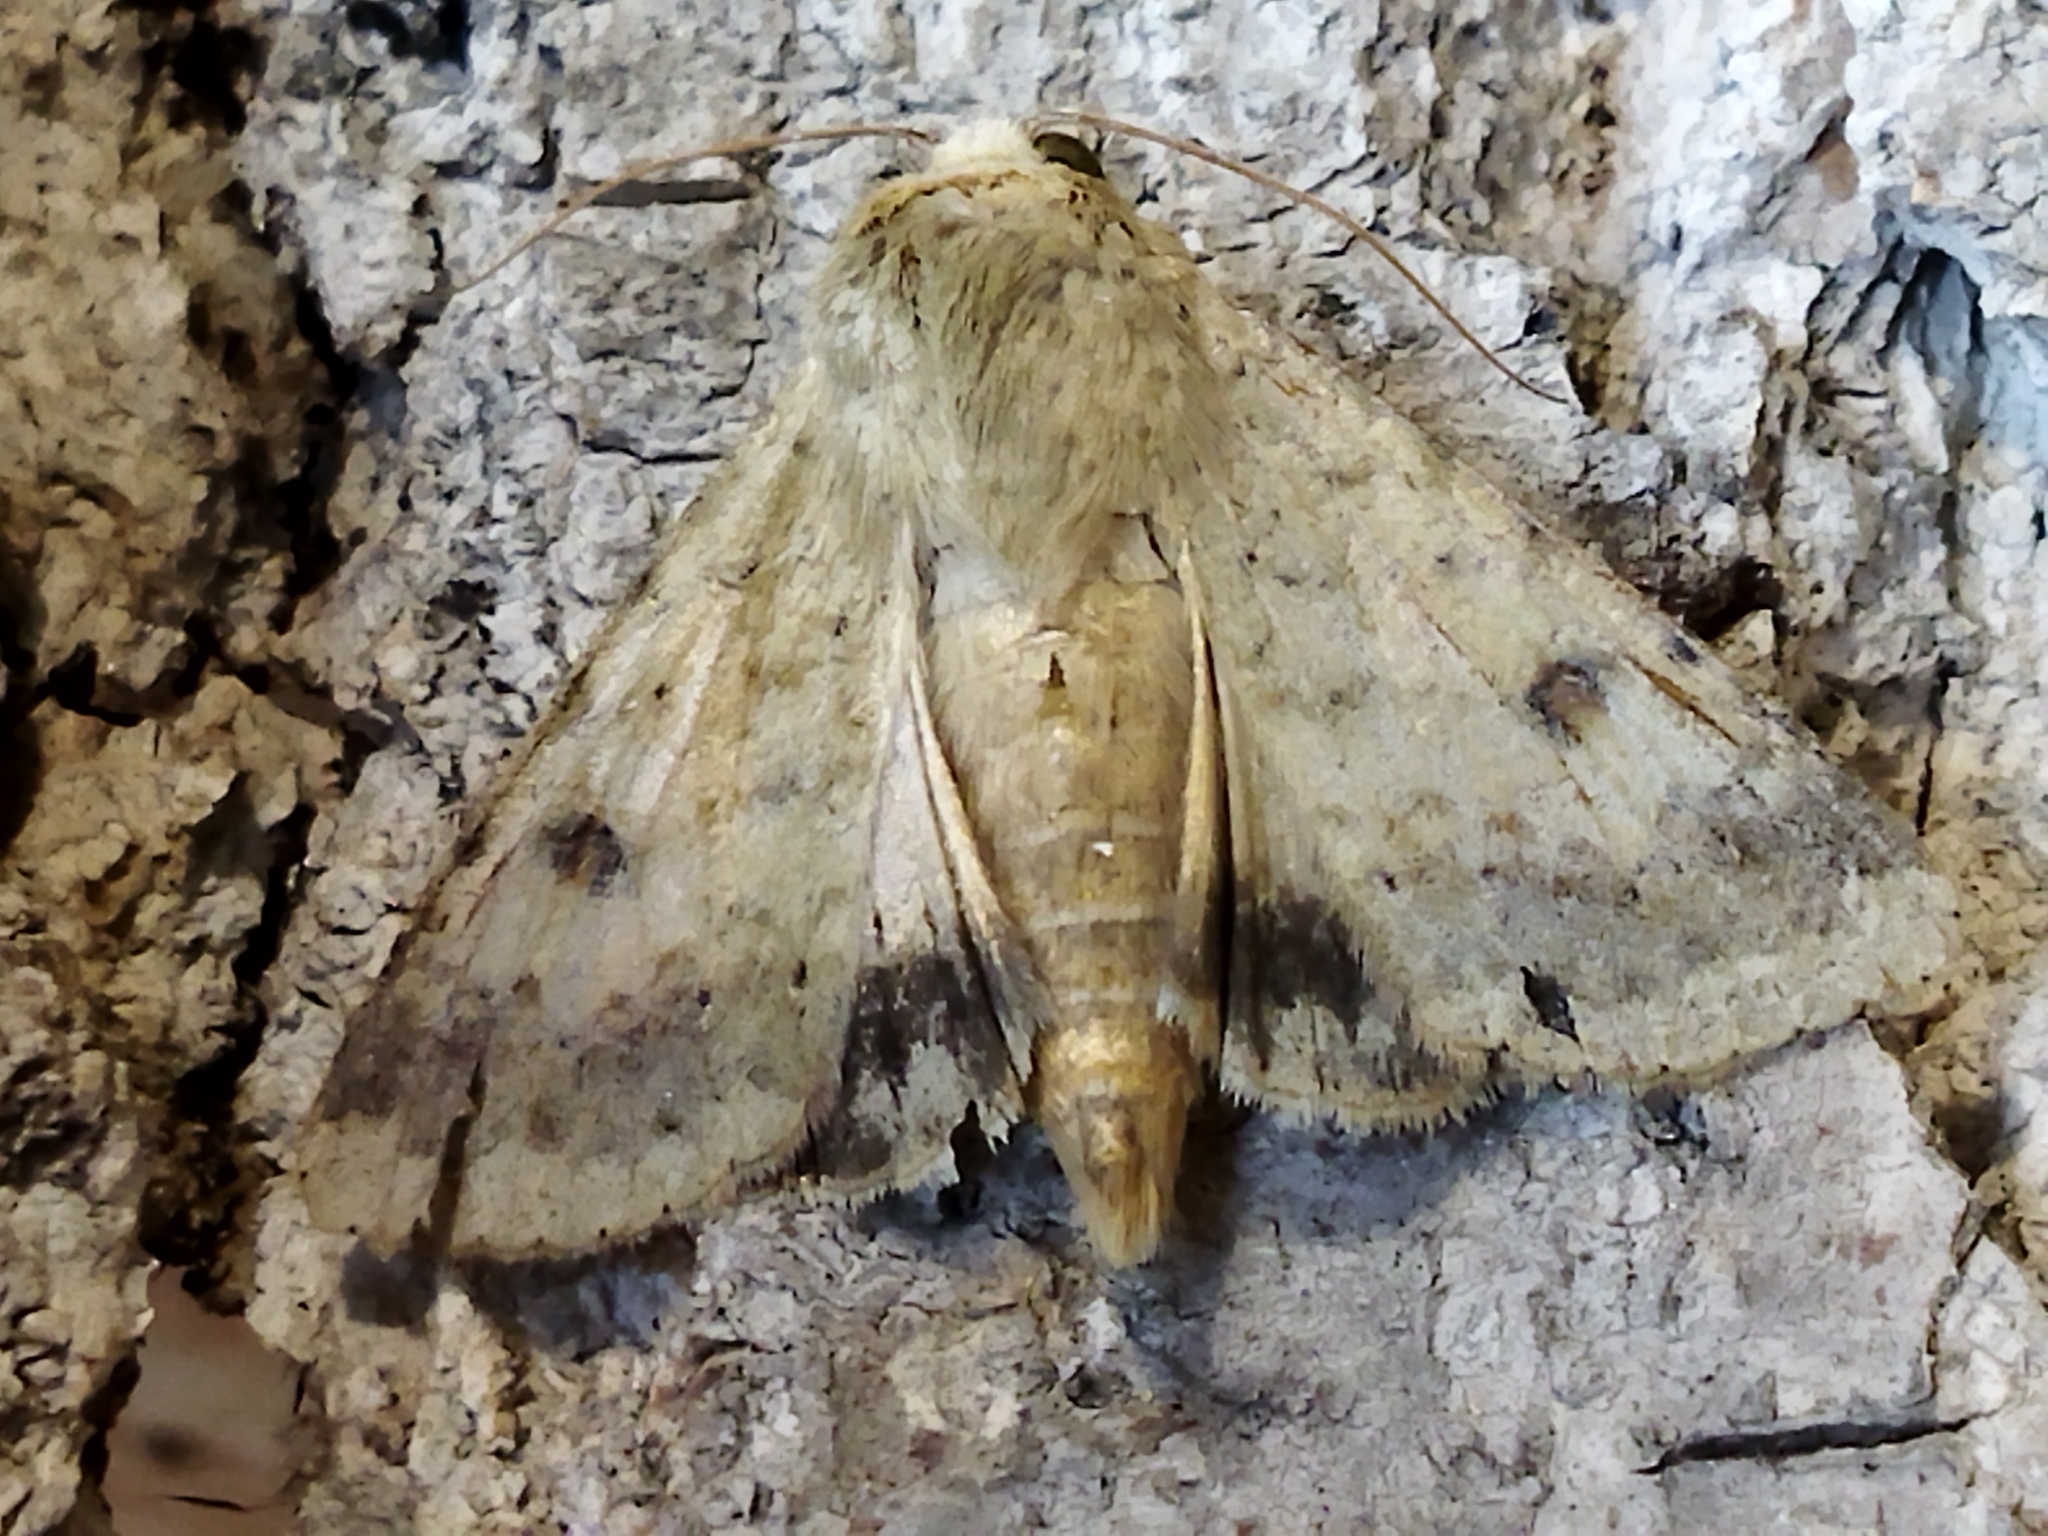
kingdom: Animalia
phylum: Arthropoda
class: Insecta
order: Lepidoptera
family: Noctuidae
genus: Helicoverpa
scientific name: Helicoverpa armigera
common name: Cotton bollworm
